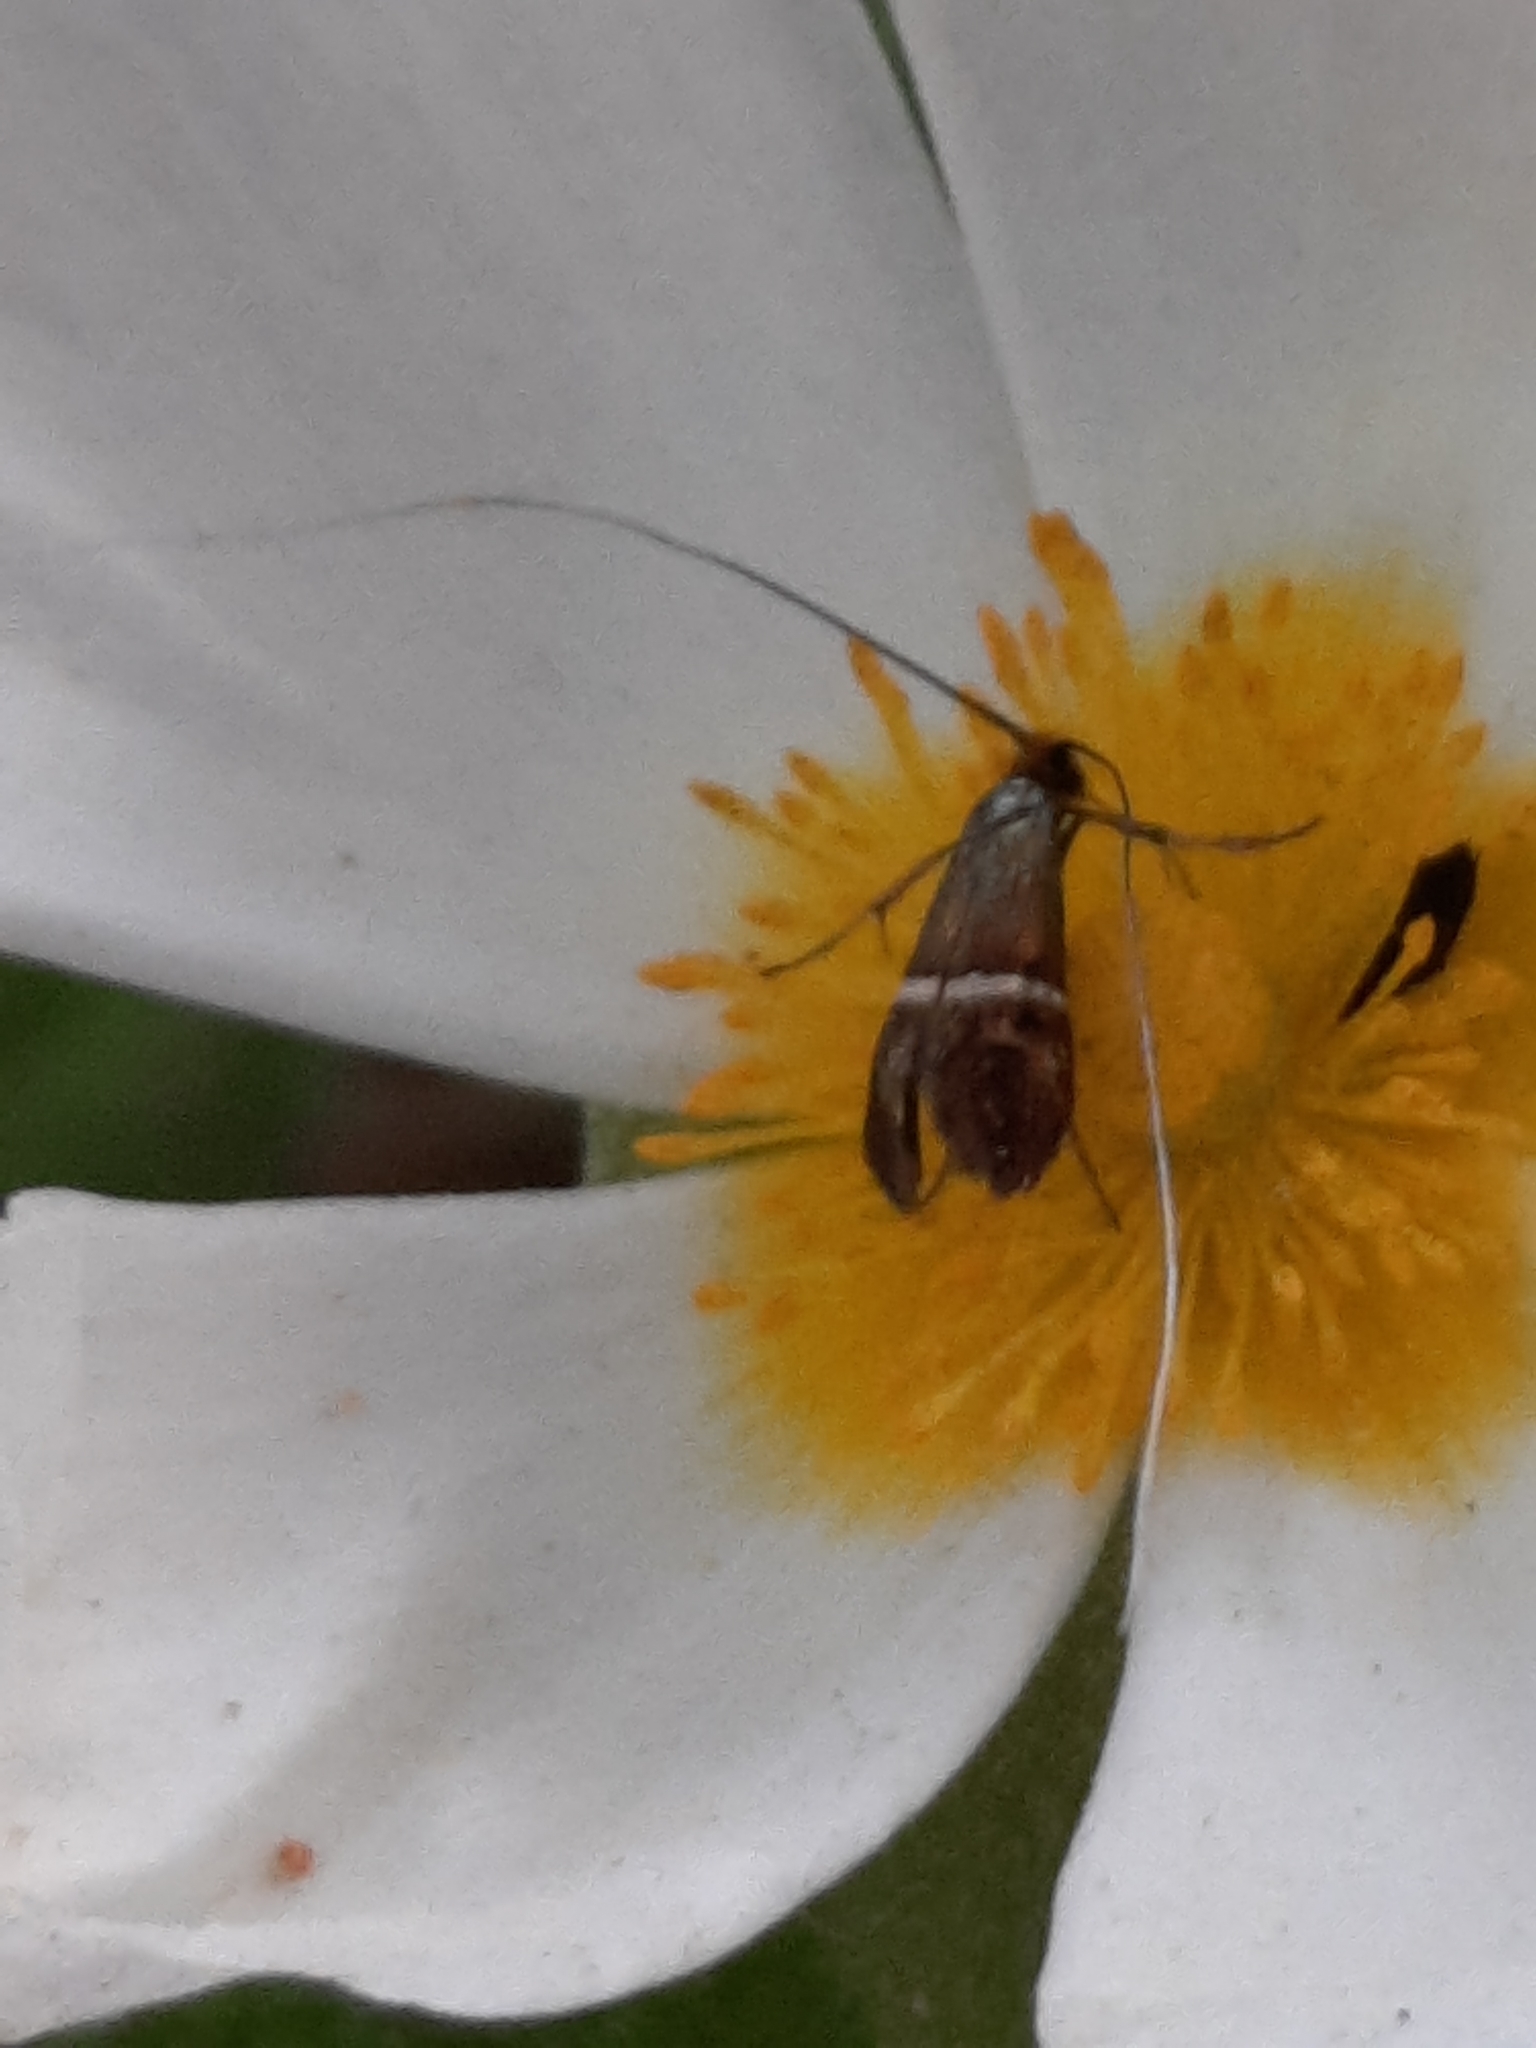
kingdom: Animalia
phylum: Arthropoda
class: Insecta
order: Lepidoptera
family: Adelidae
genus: Adela
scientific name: Adela australis
